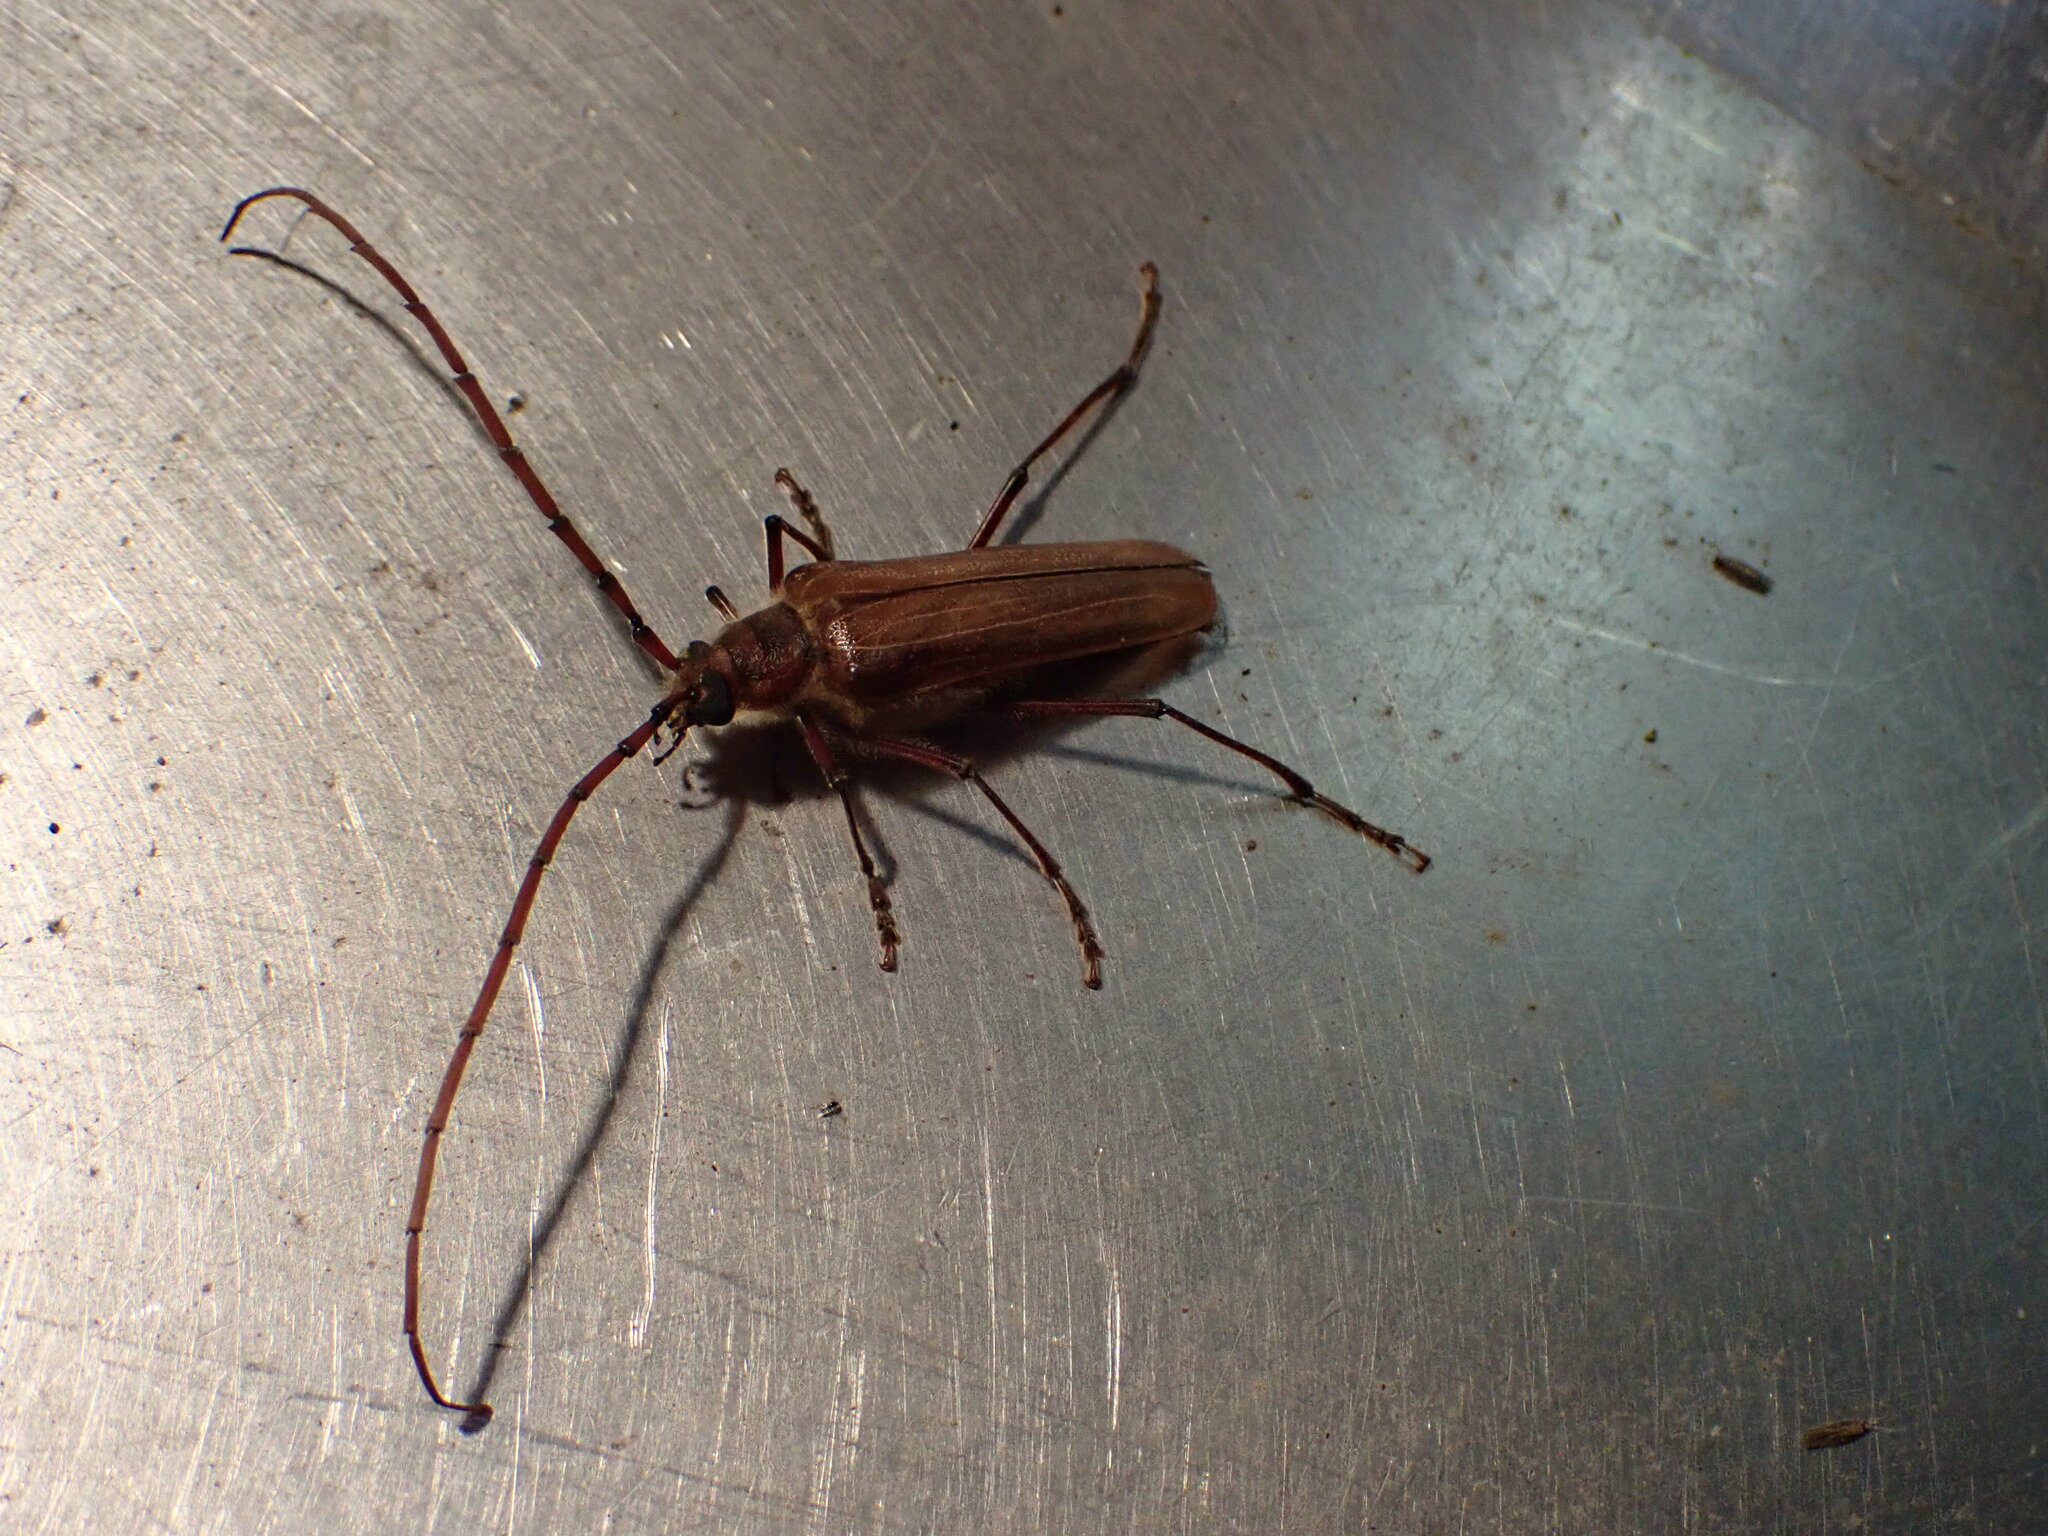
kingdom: Animalia
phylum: Arthropoda
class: Insecta
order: Coleoptera
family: Cerambycidae
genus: Ochrocydus
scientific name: Ochrocydus huttoni
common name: Kanuka longhorn
